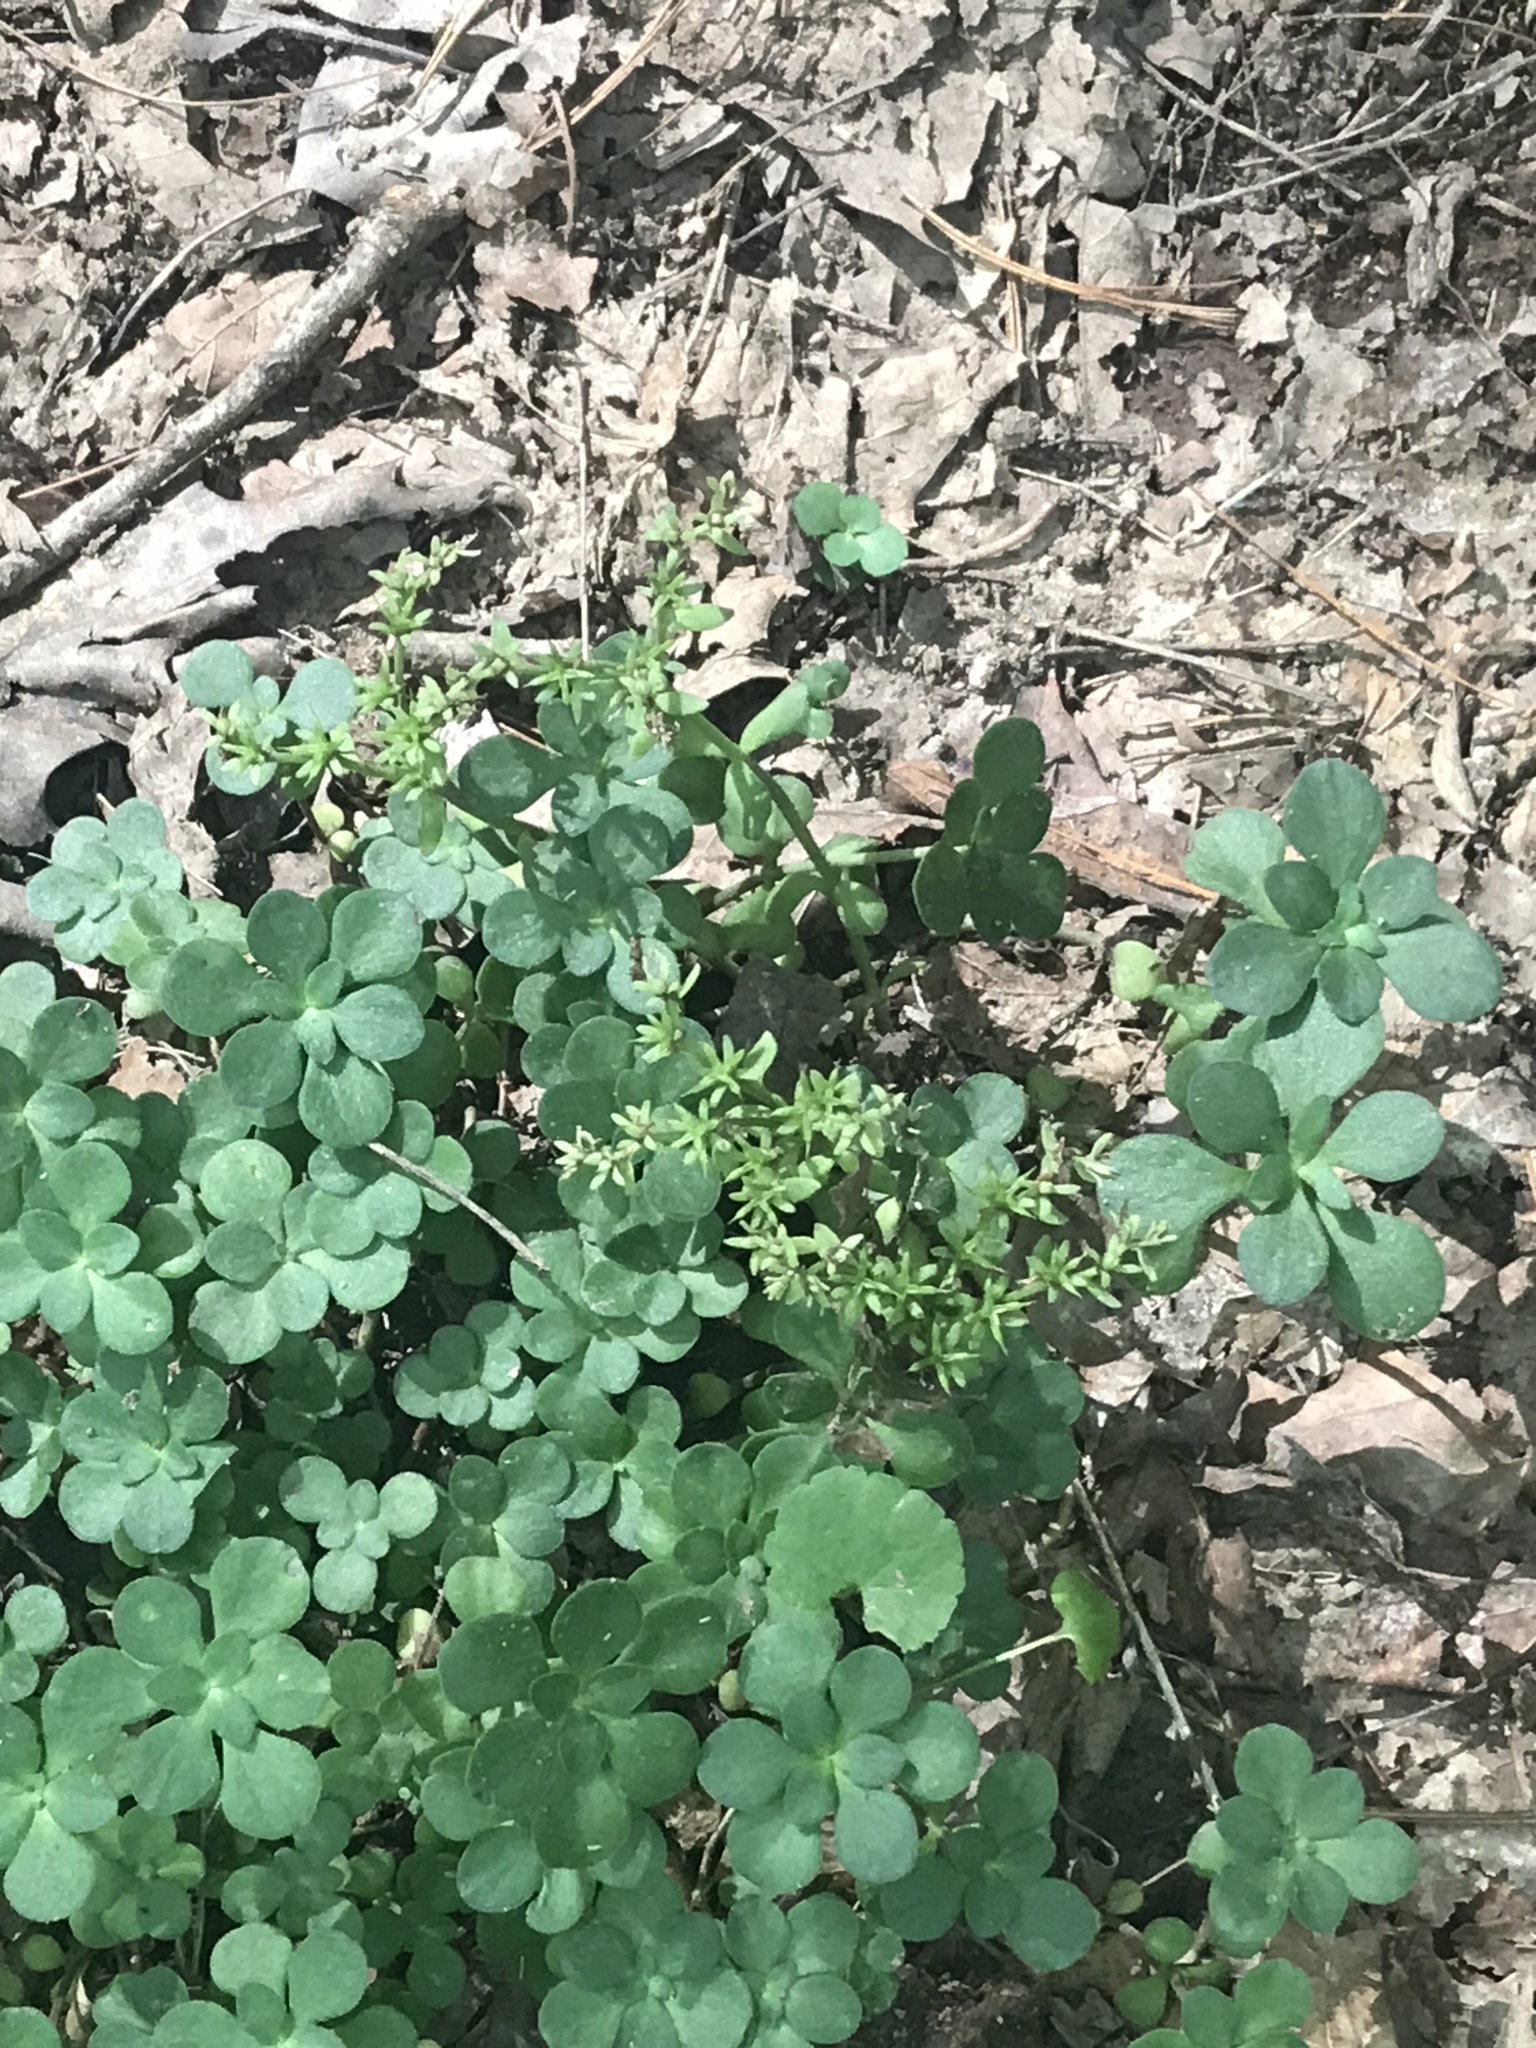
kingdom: Plantae
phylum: Tracheophyta
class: Magnoliopsida
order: Saxifragales
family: Crassulaceae
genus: Sedum
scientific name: Sedum ternatum
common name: Wild stonecrop
